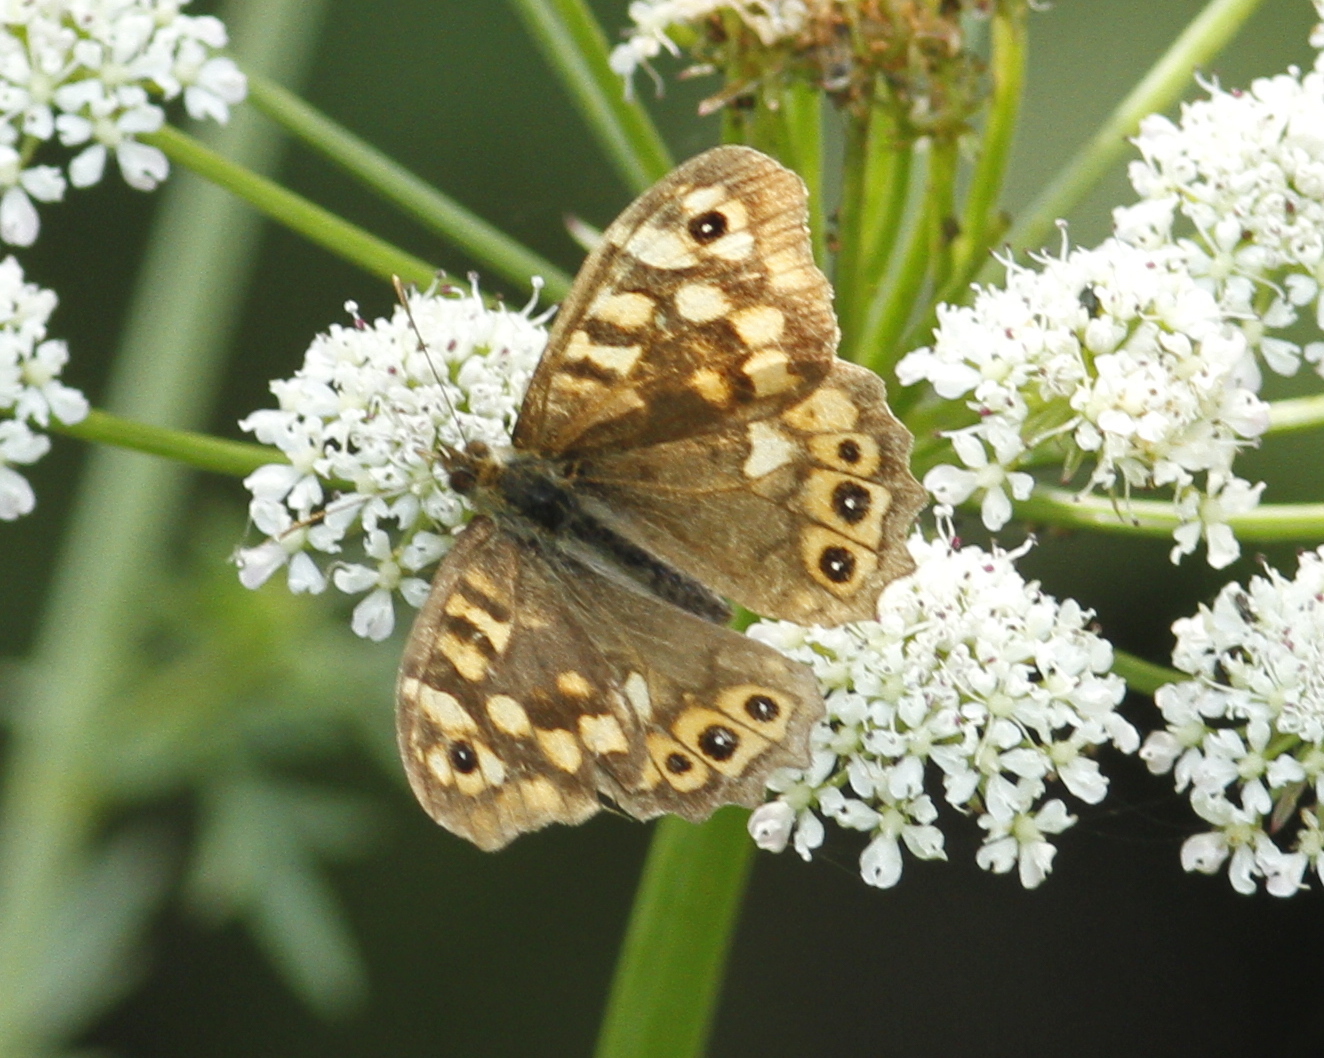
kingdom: Animalia
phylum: Arthropoda
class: Insecta
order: Lepidoptera
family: Nymphalidae
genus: Pararge
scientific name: Pararge aegeria
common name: Speckled wood
